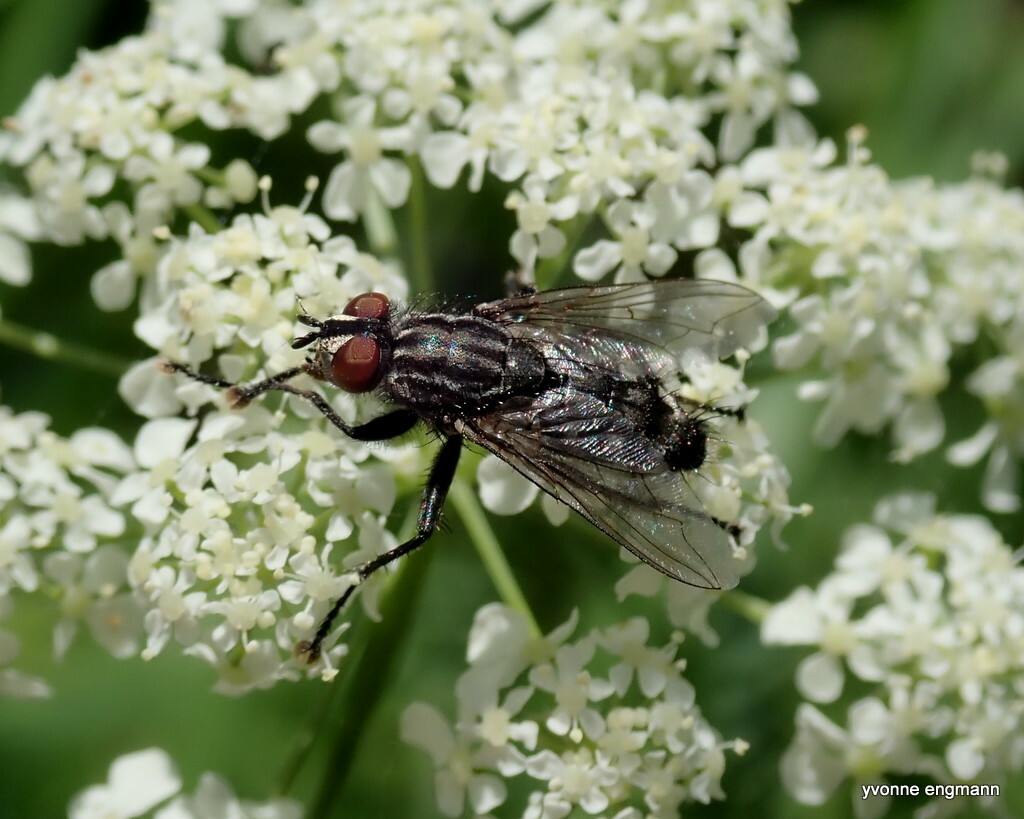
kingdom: Animalia
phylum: Arthropoda
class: Insecta
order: Diptera
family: Sarcophagidae
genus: Sarcophaga
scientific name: Sarcophaga
